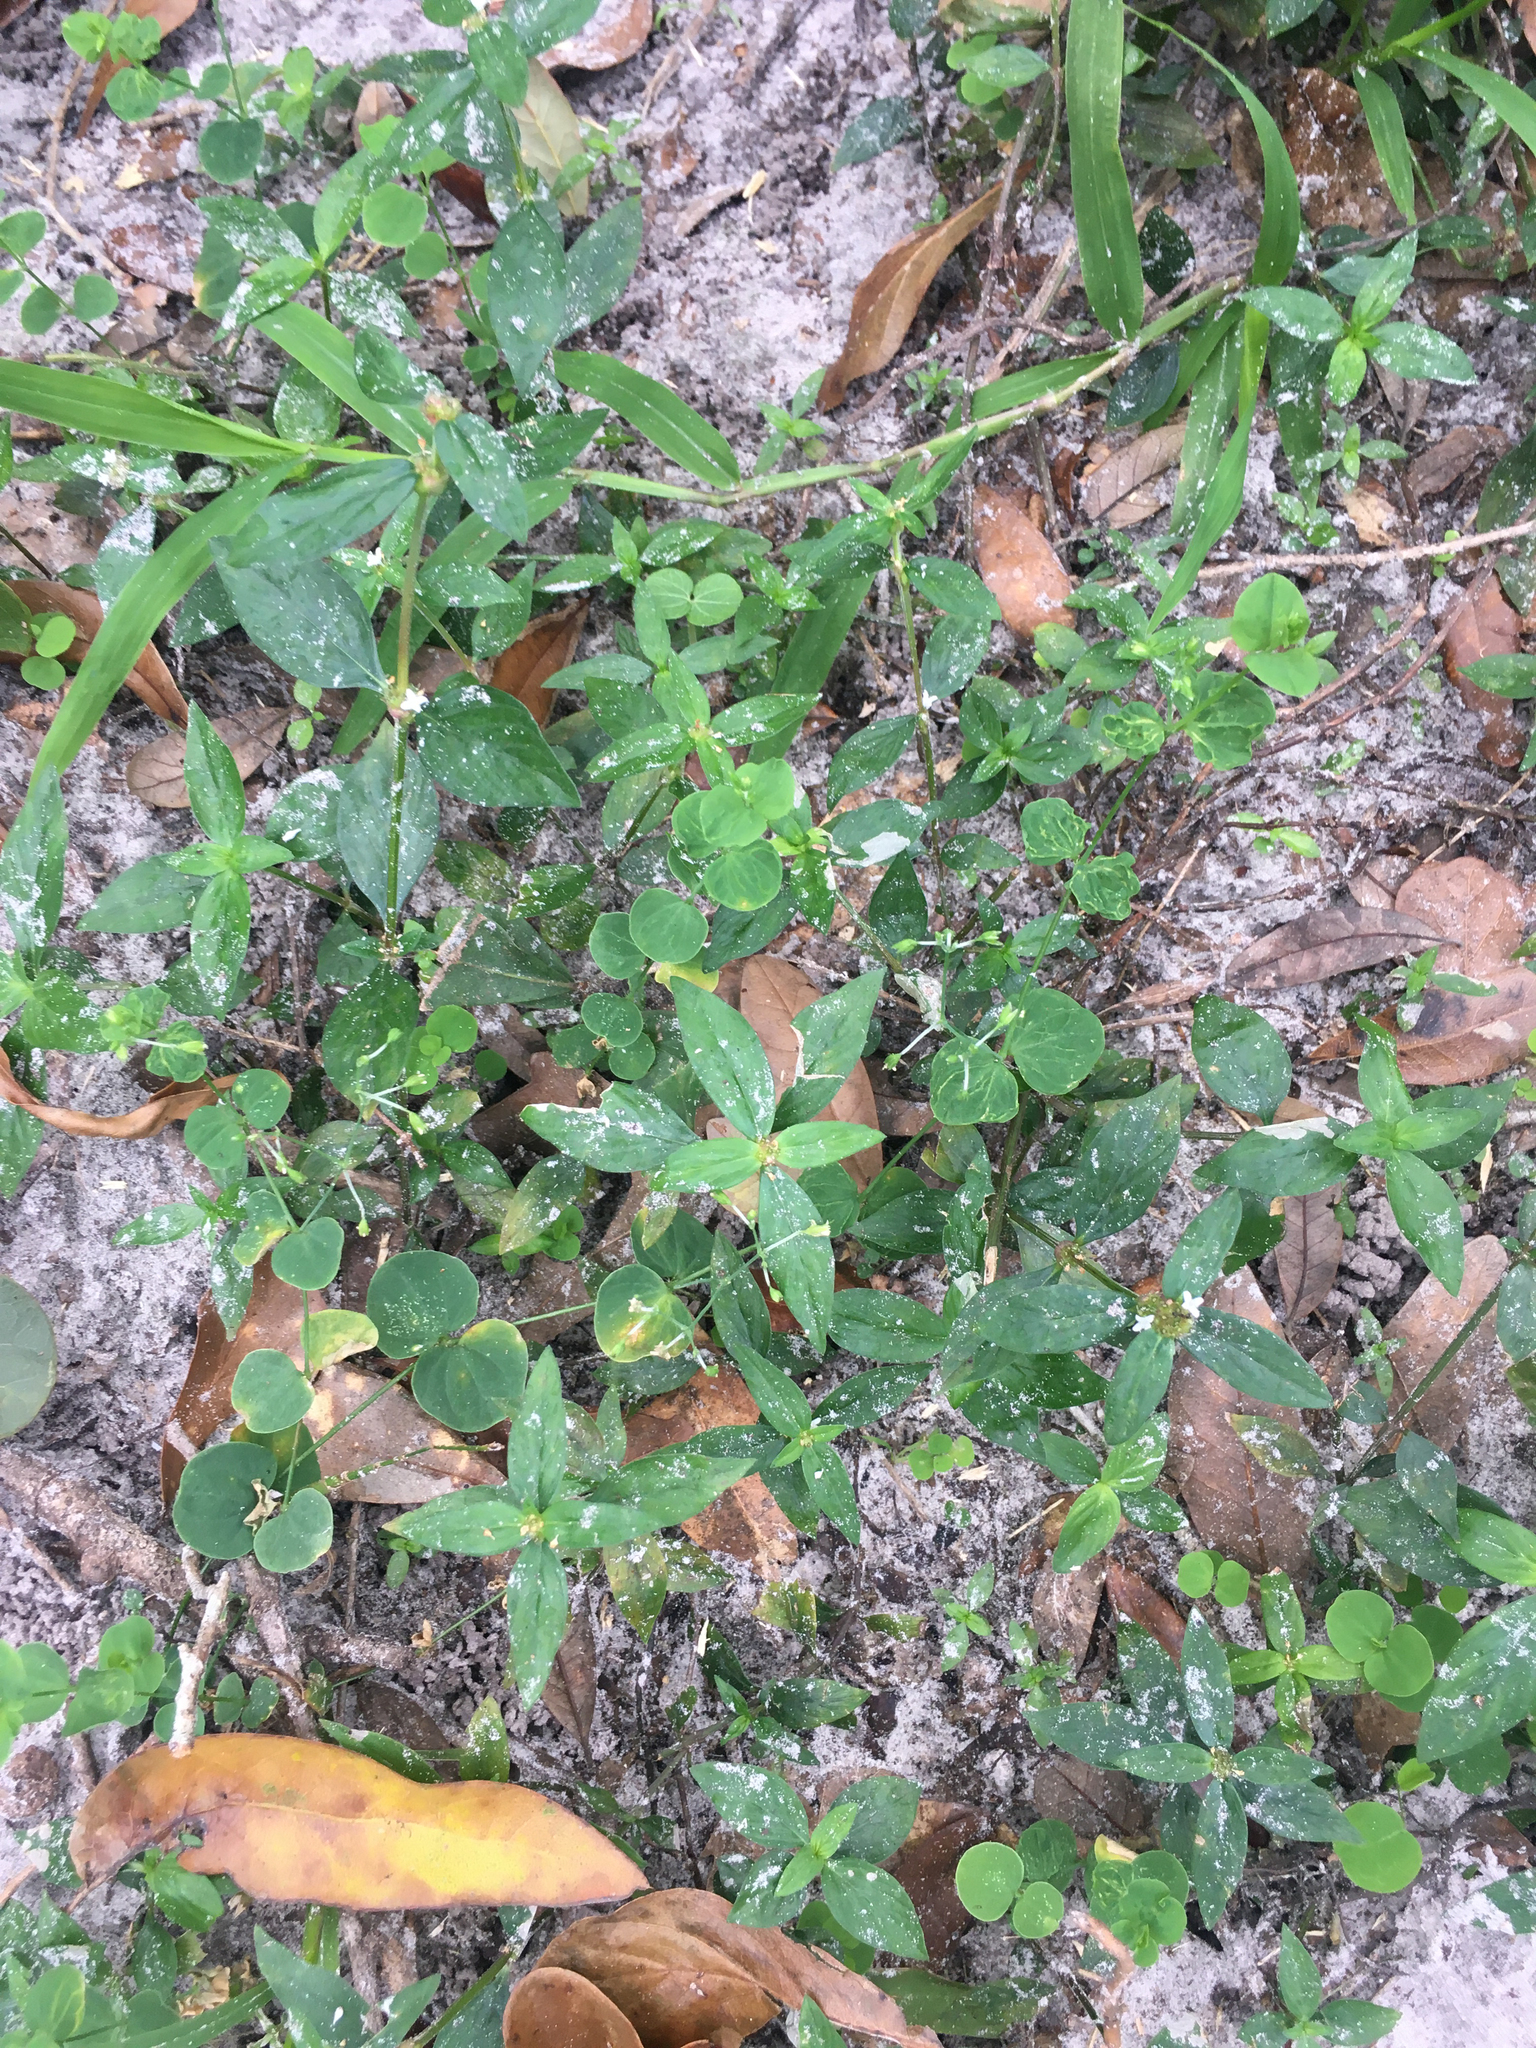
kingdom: Plantae
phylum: Tracheophyta
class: Magnoliopsida
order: Gentianales
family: Rubiaceae
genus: Spermacoce
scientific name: Spermacoce remota
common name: Woodland false buttonweed
